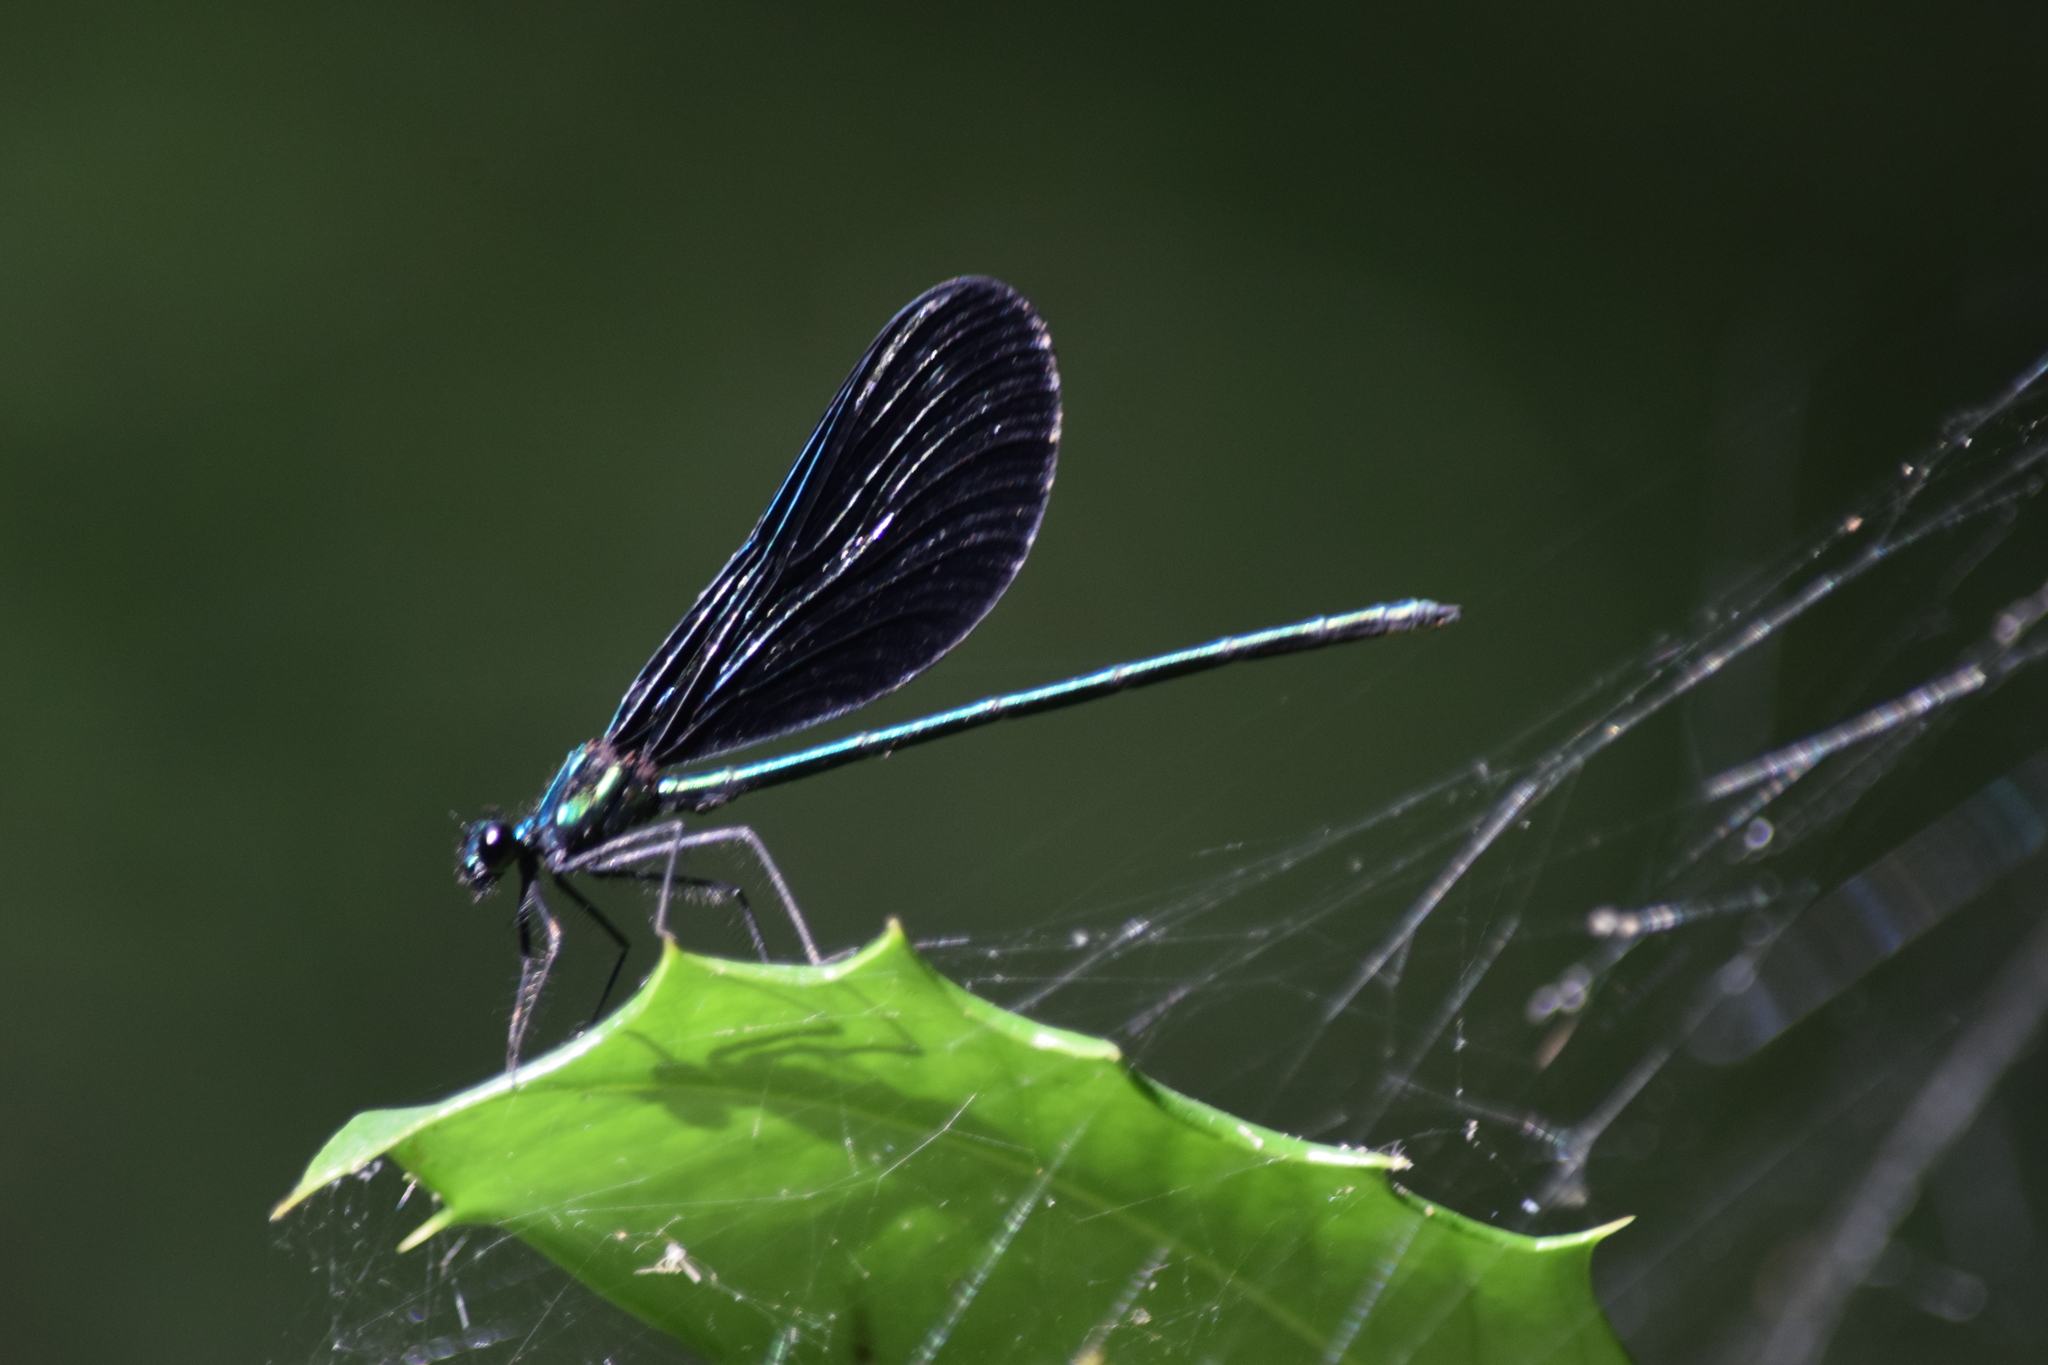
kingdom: Animalia
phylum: Arthropoda
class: Insecta
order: Odonata
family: Calopterygidae
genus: Calopteryx
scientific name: Calopteryx maculata
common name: Ebony jewelwing
